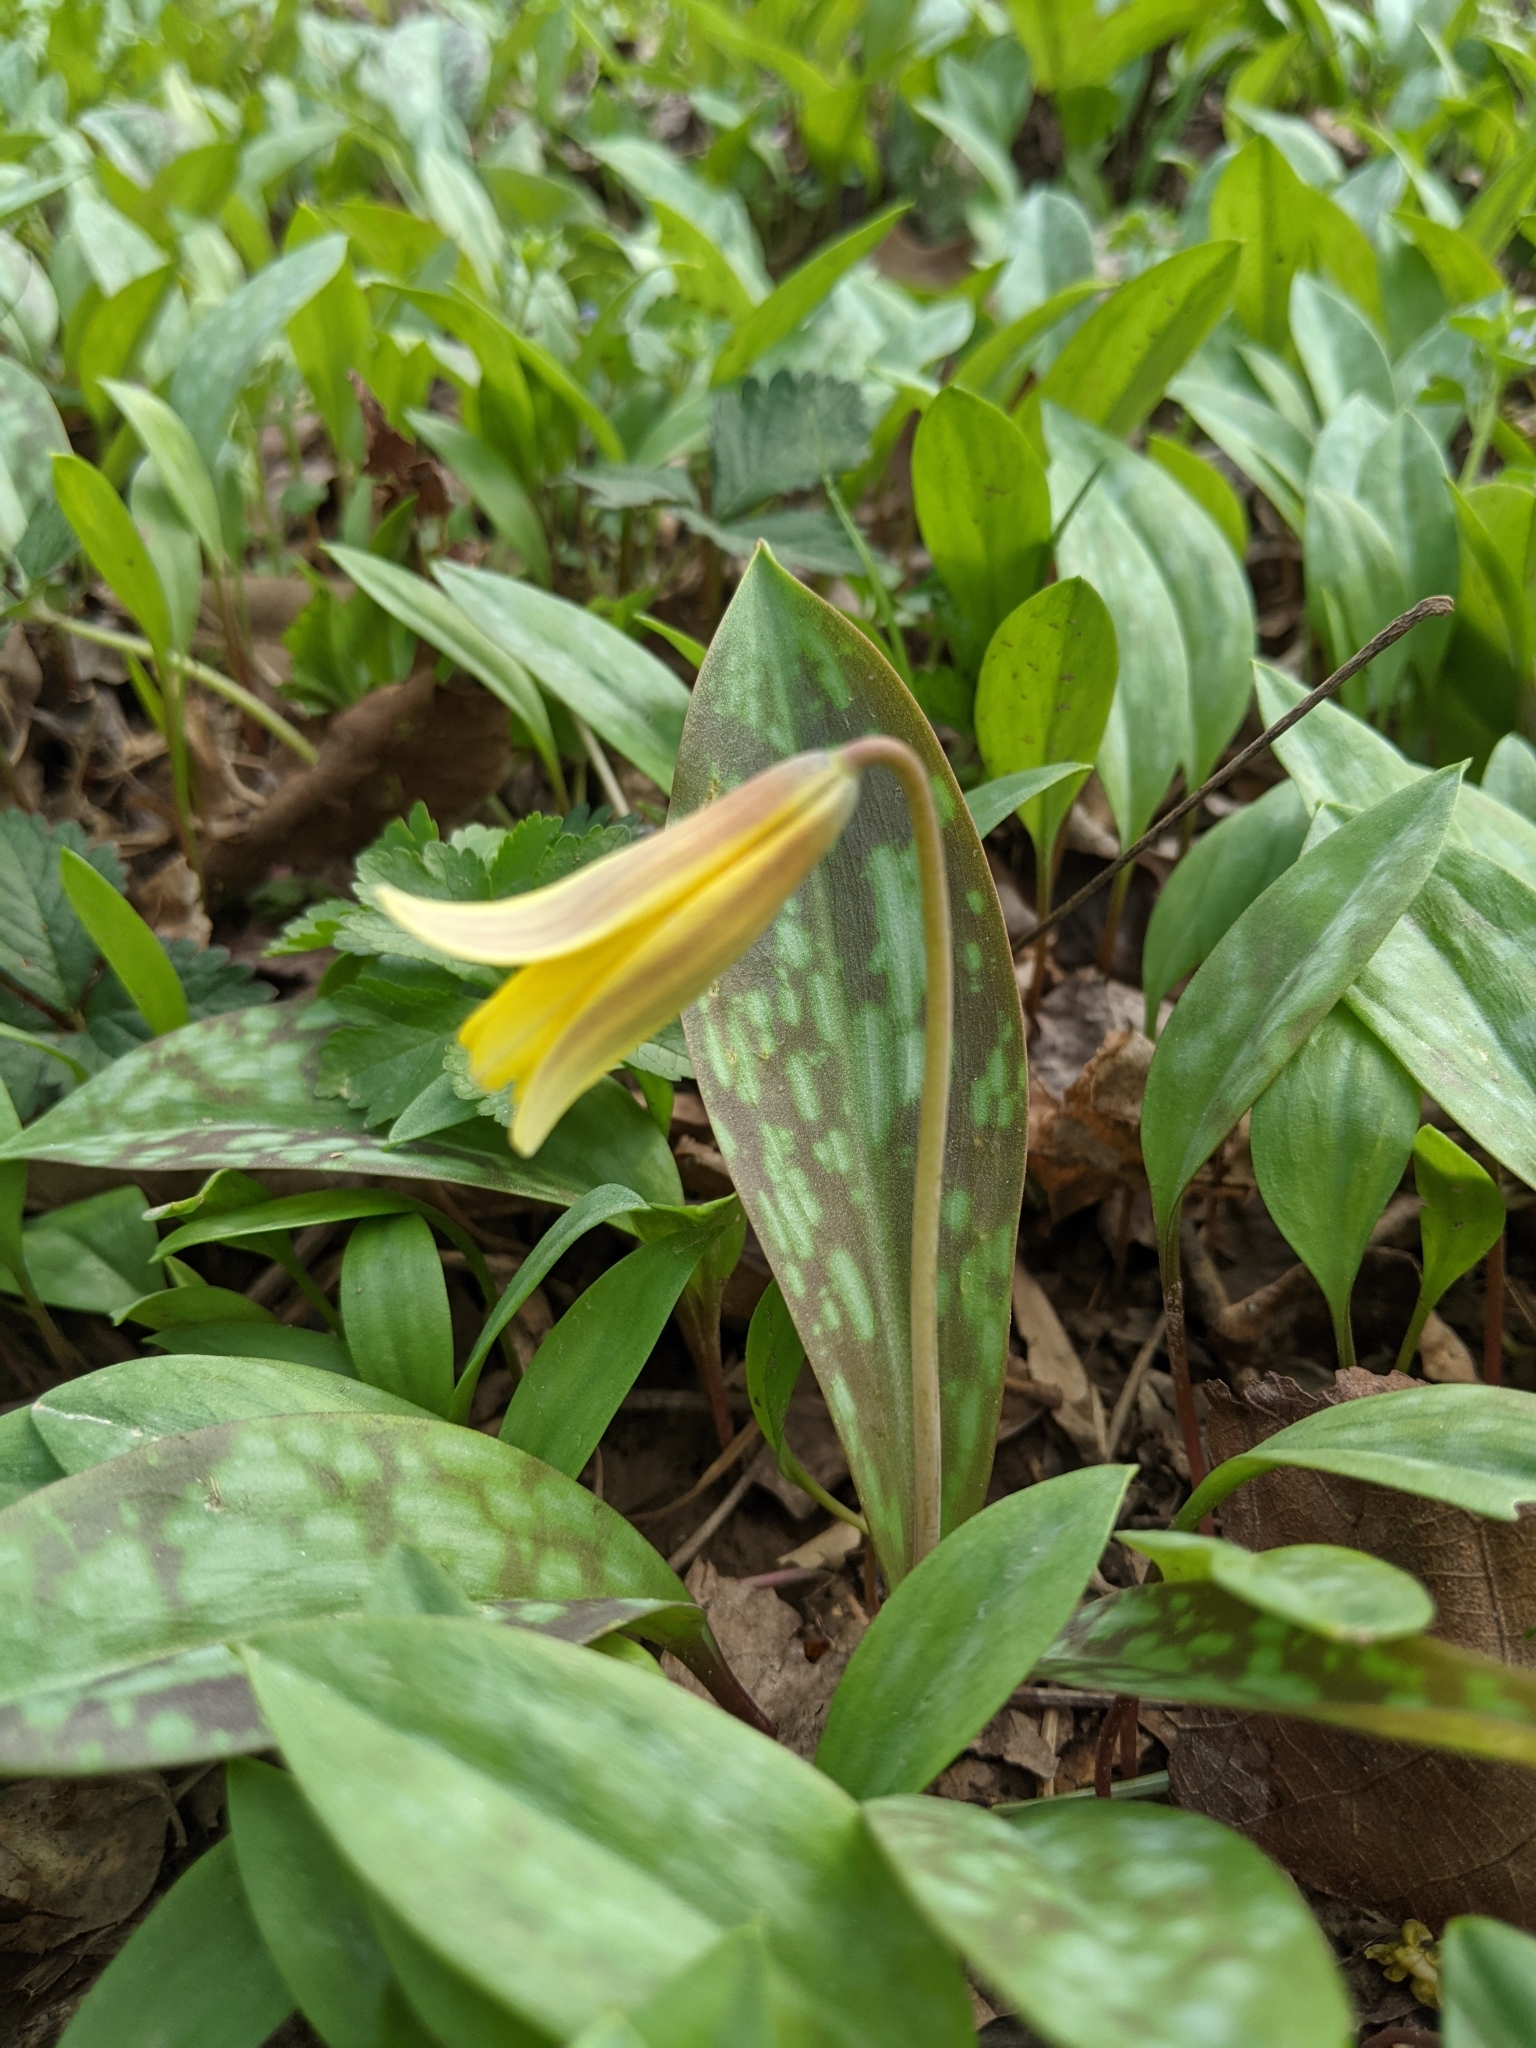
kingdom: Plantae
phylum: Tracheophyta
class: Liliopsida
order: Liliales
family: Liliaceae
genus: Erythronium
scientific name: Erythronium americanum
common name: Yellow adder's-tongue
